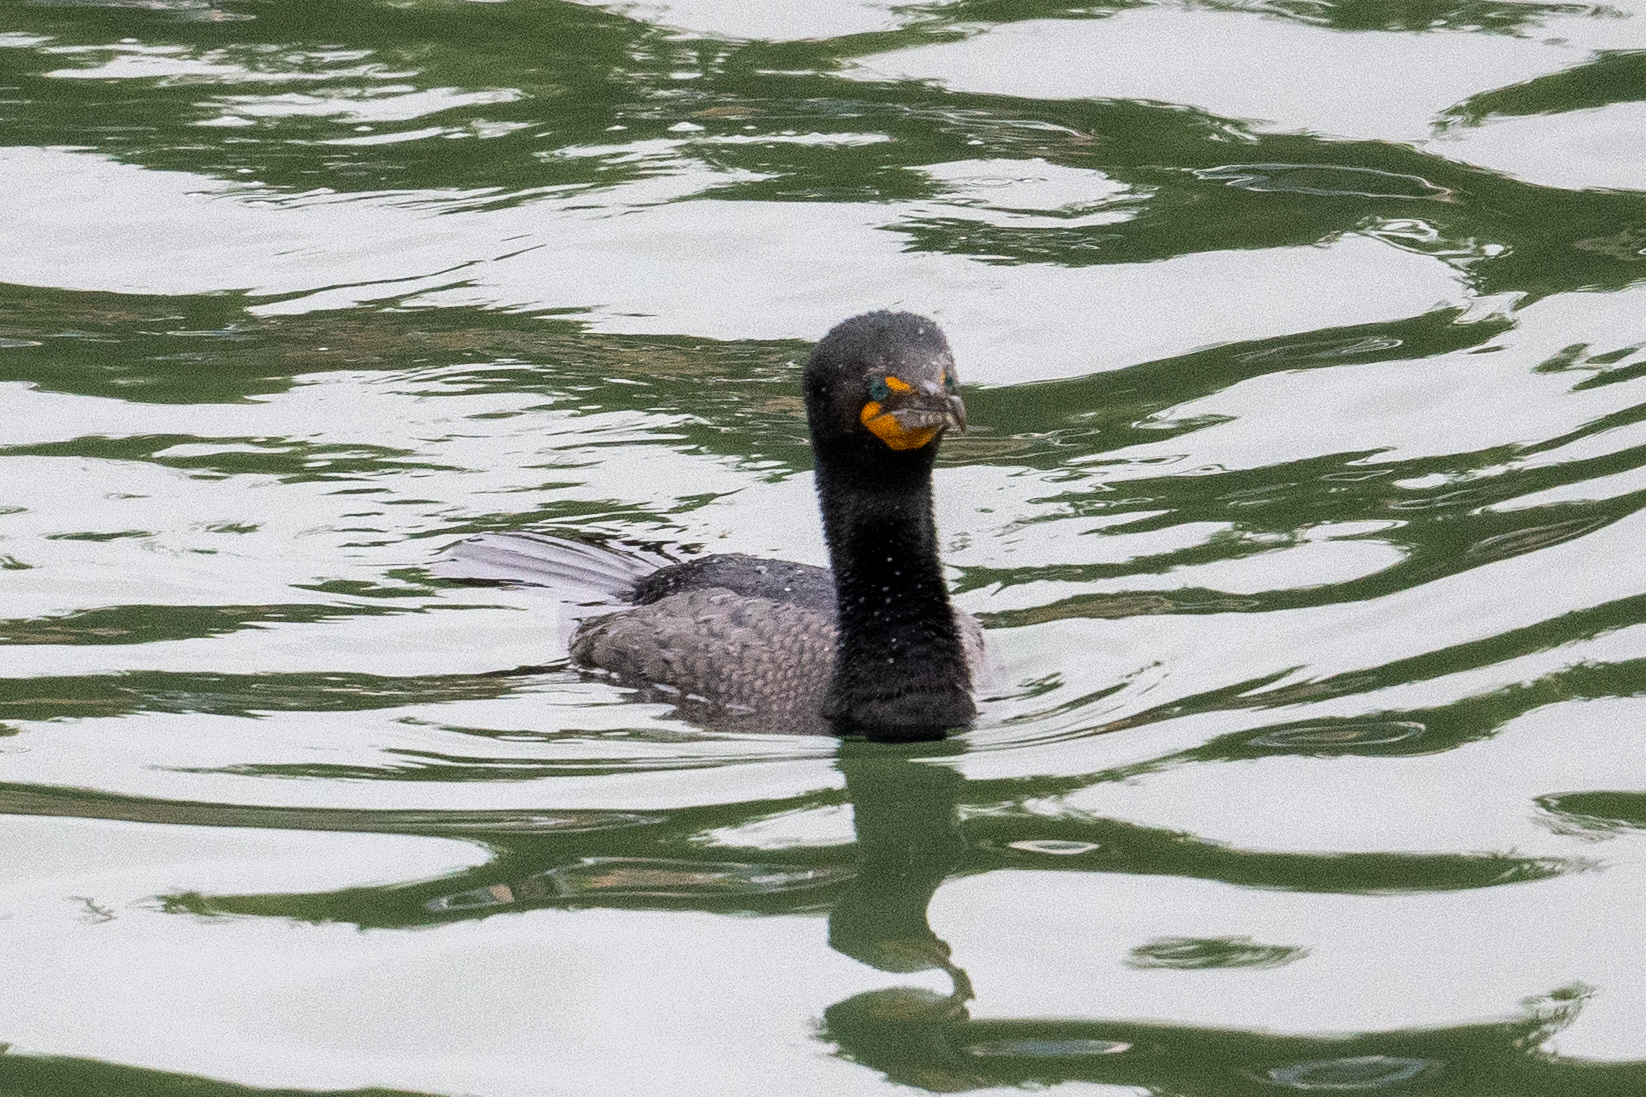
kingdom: Animalia
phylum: Chordata
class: Aves
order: Suliformes
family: Phalacrocoracidae
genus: Phalacrocorax
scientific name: Phalacrocorax auritus
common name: Double-crested cormorant
